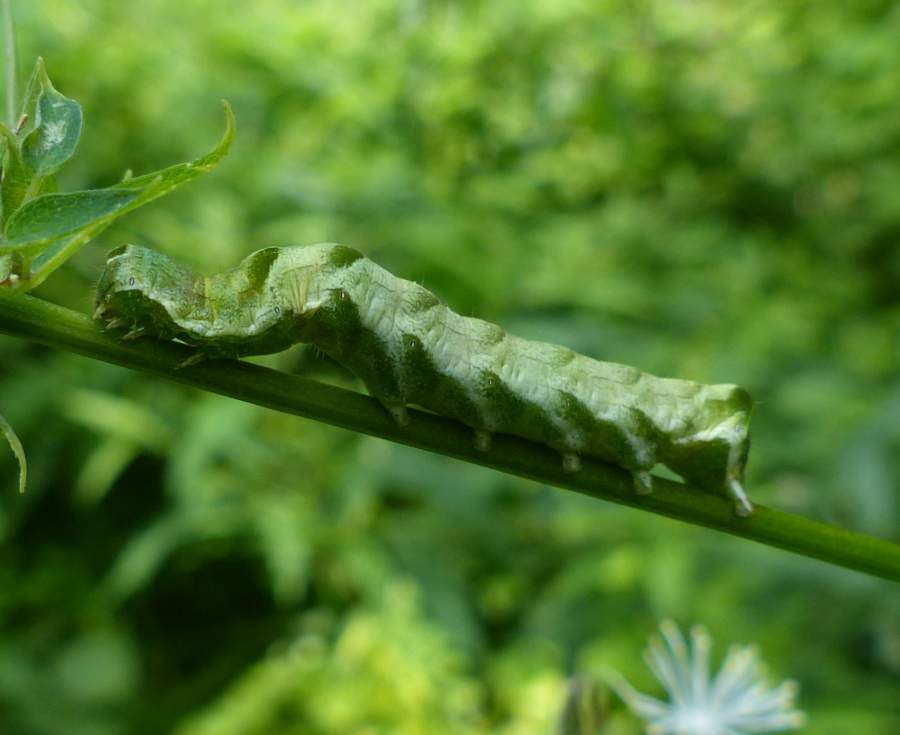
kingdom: Animalia
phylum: Arthropoda
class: Insecta
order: Lepidoptera
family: Noctuidae
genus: Melanchra
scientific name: Melanchra adjuncta
